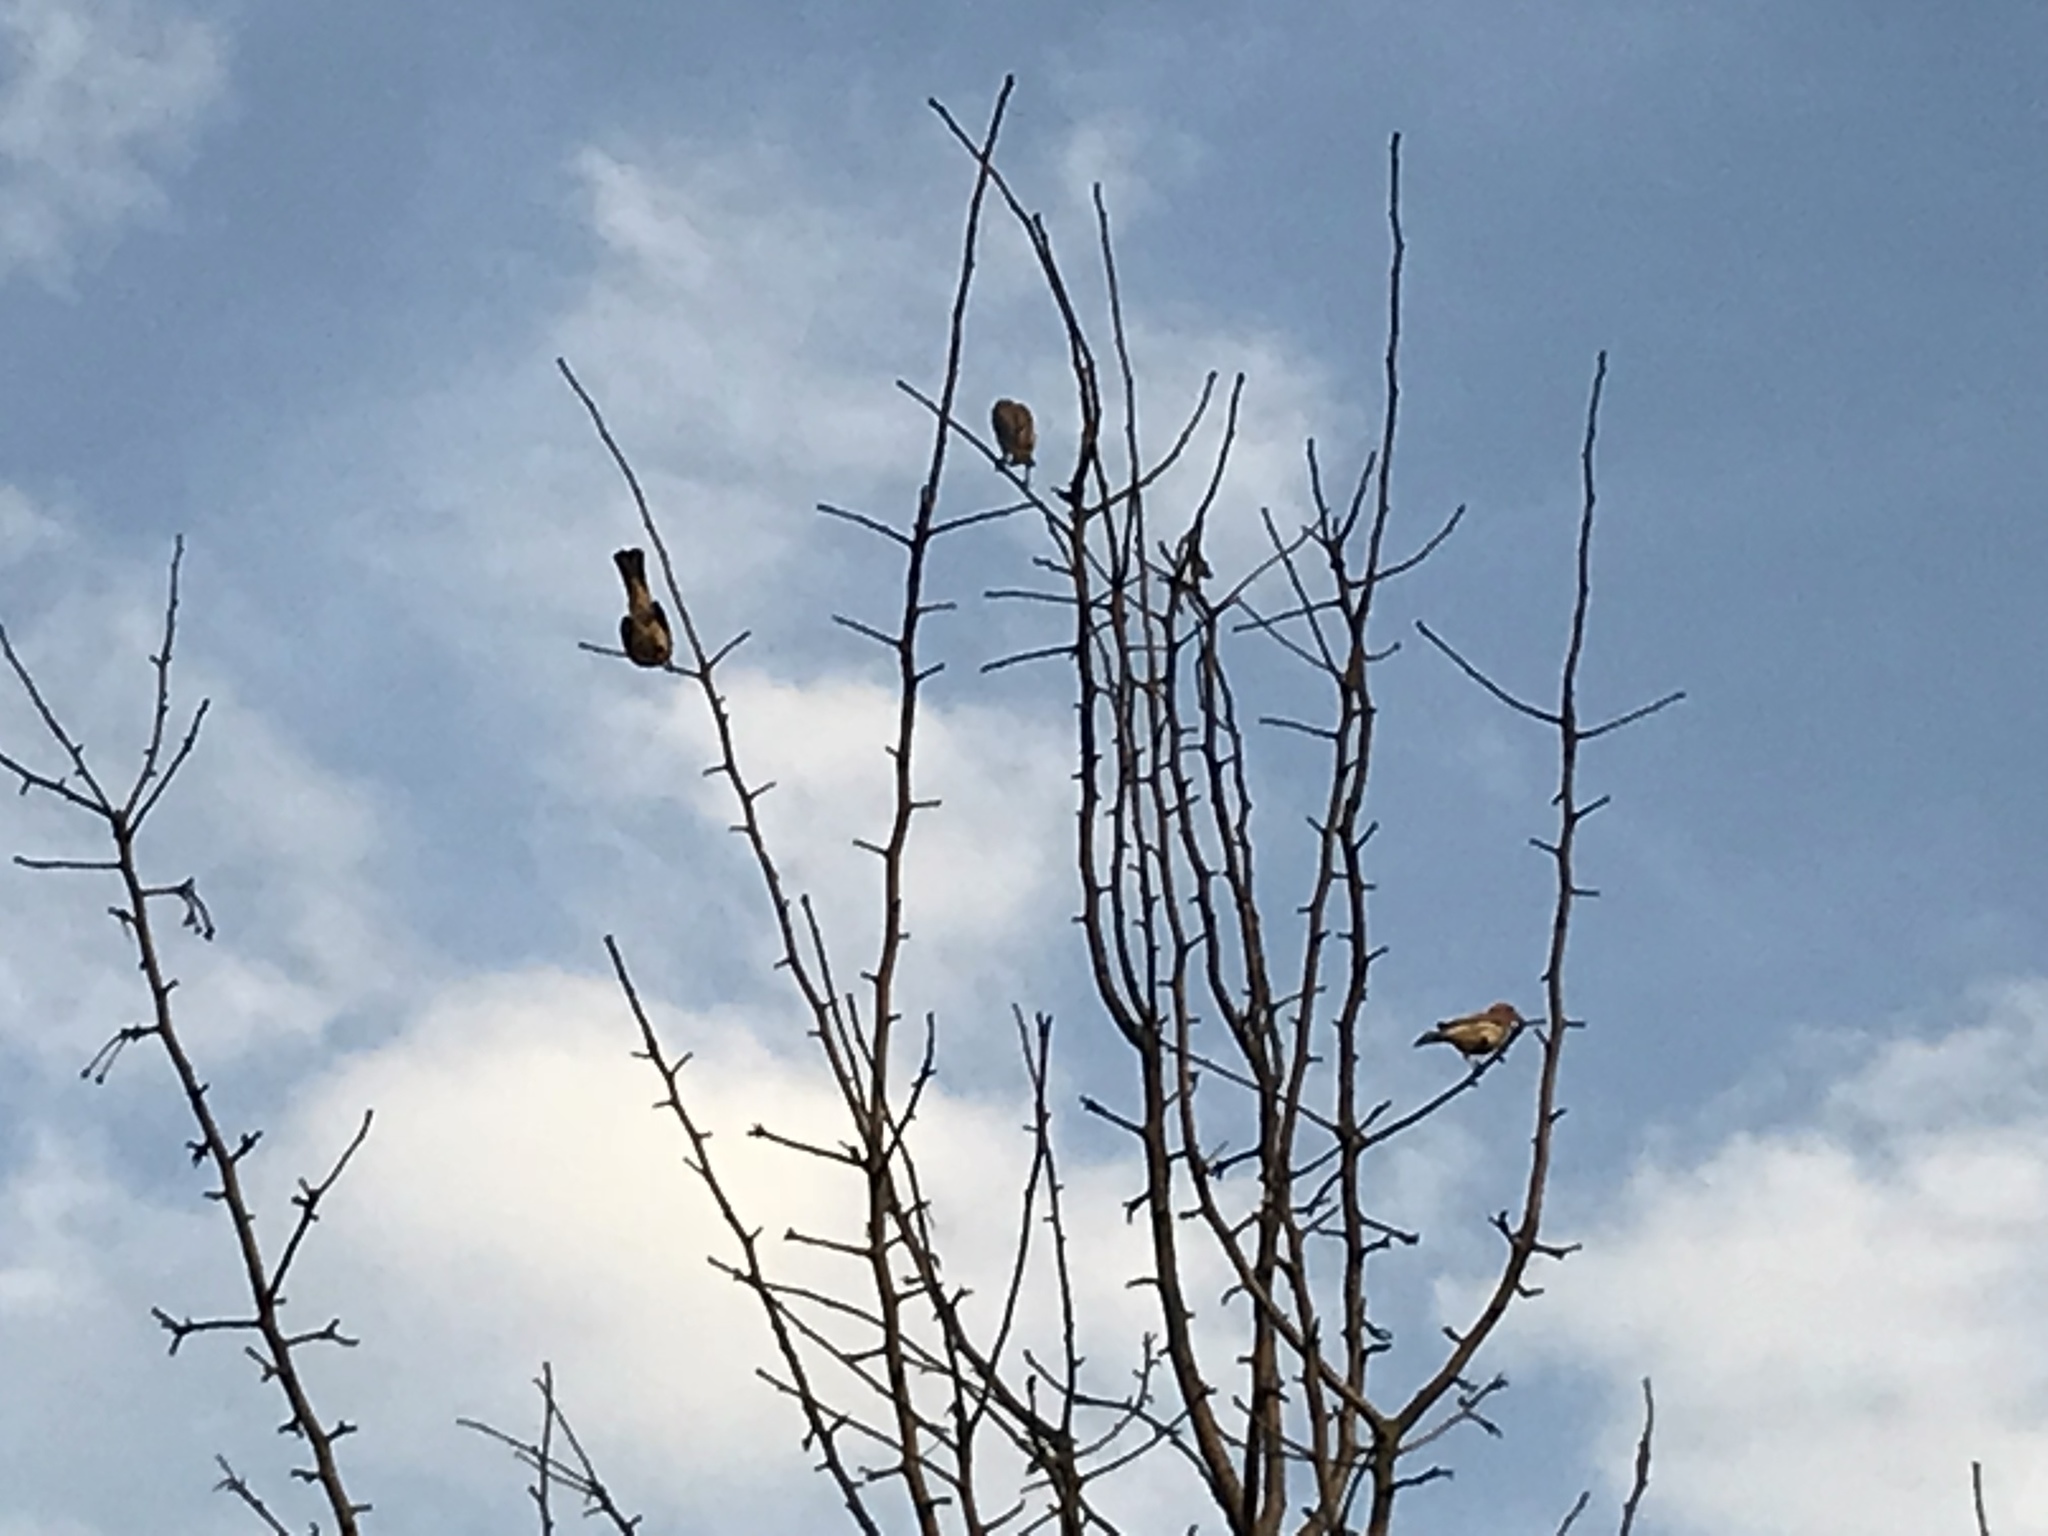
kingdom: Animalia
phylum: Chordata
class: Aves
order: Passeriformes
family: Fringillidae
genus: Haemorhous
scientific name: Haemorhous mexicanus
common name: House finch
